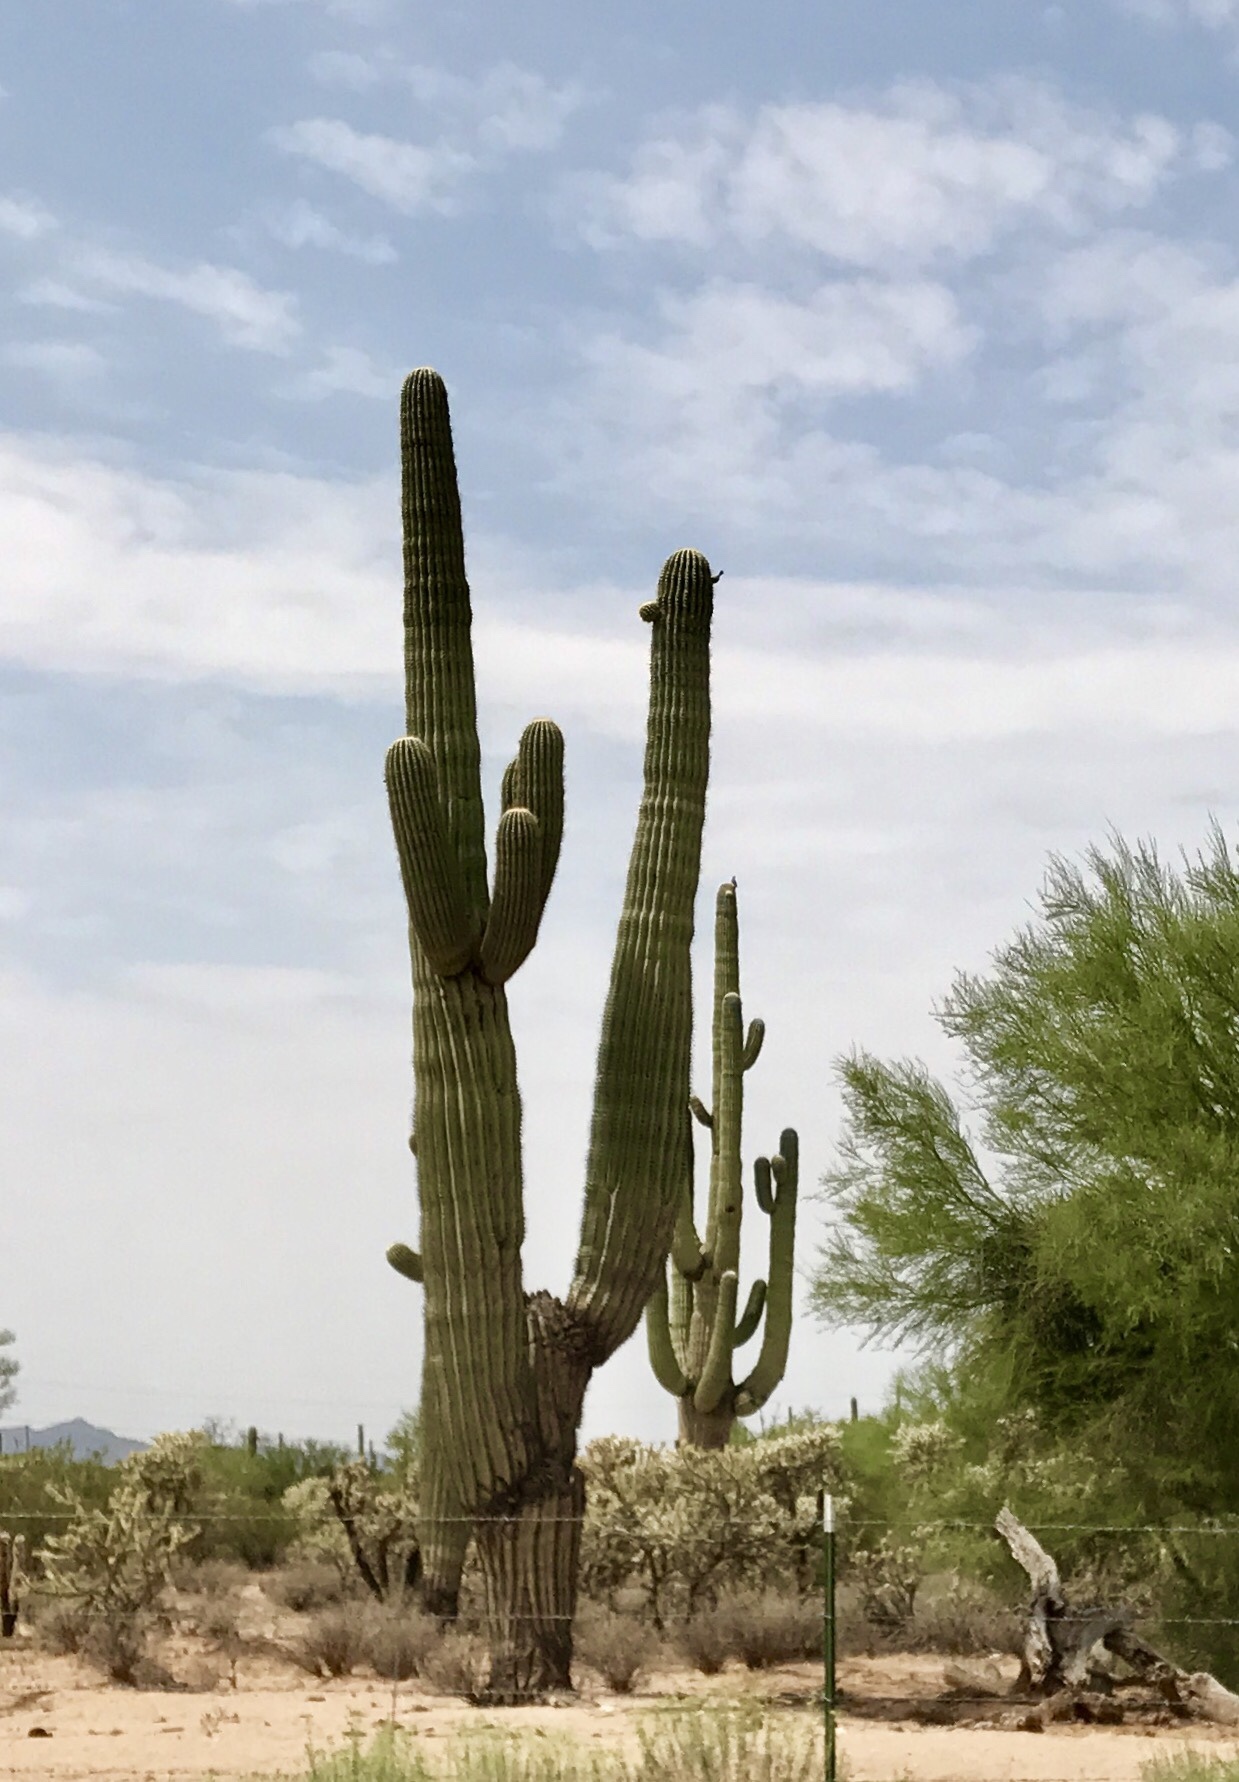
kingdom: Plantae
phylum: Tracheophyta
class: Magnoliopsida
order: Caryophyllales
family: Cactaceae
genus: Carnegiea
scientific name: Carnegiea gigantea
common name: Saguaro
